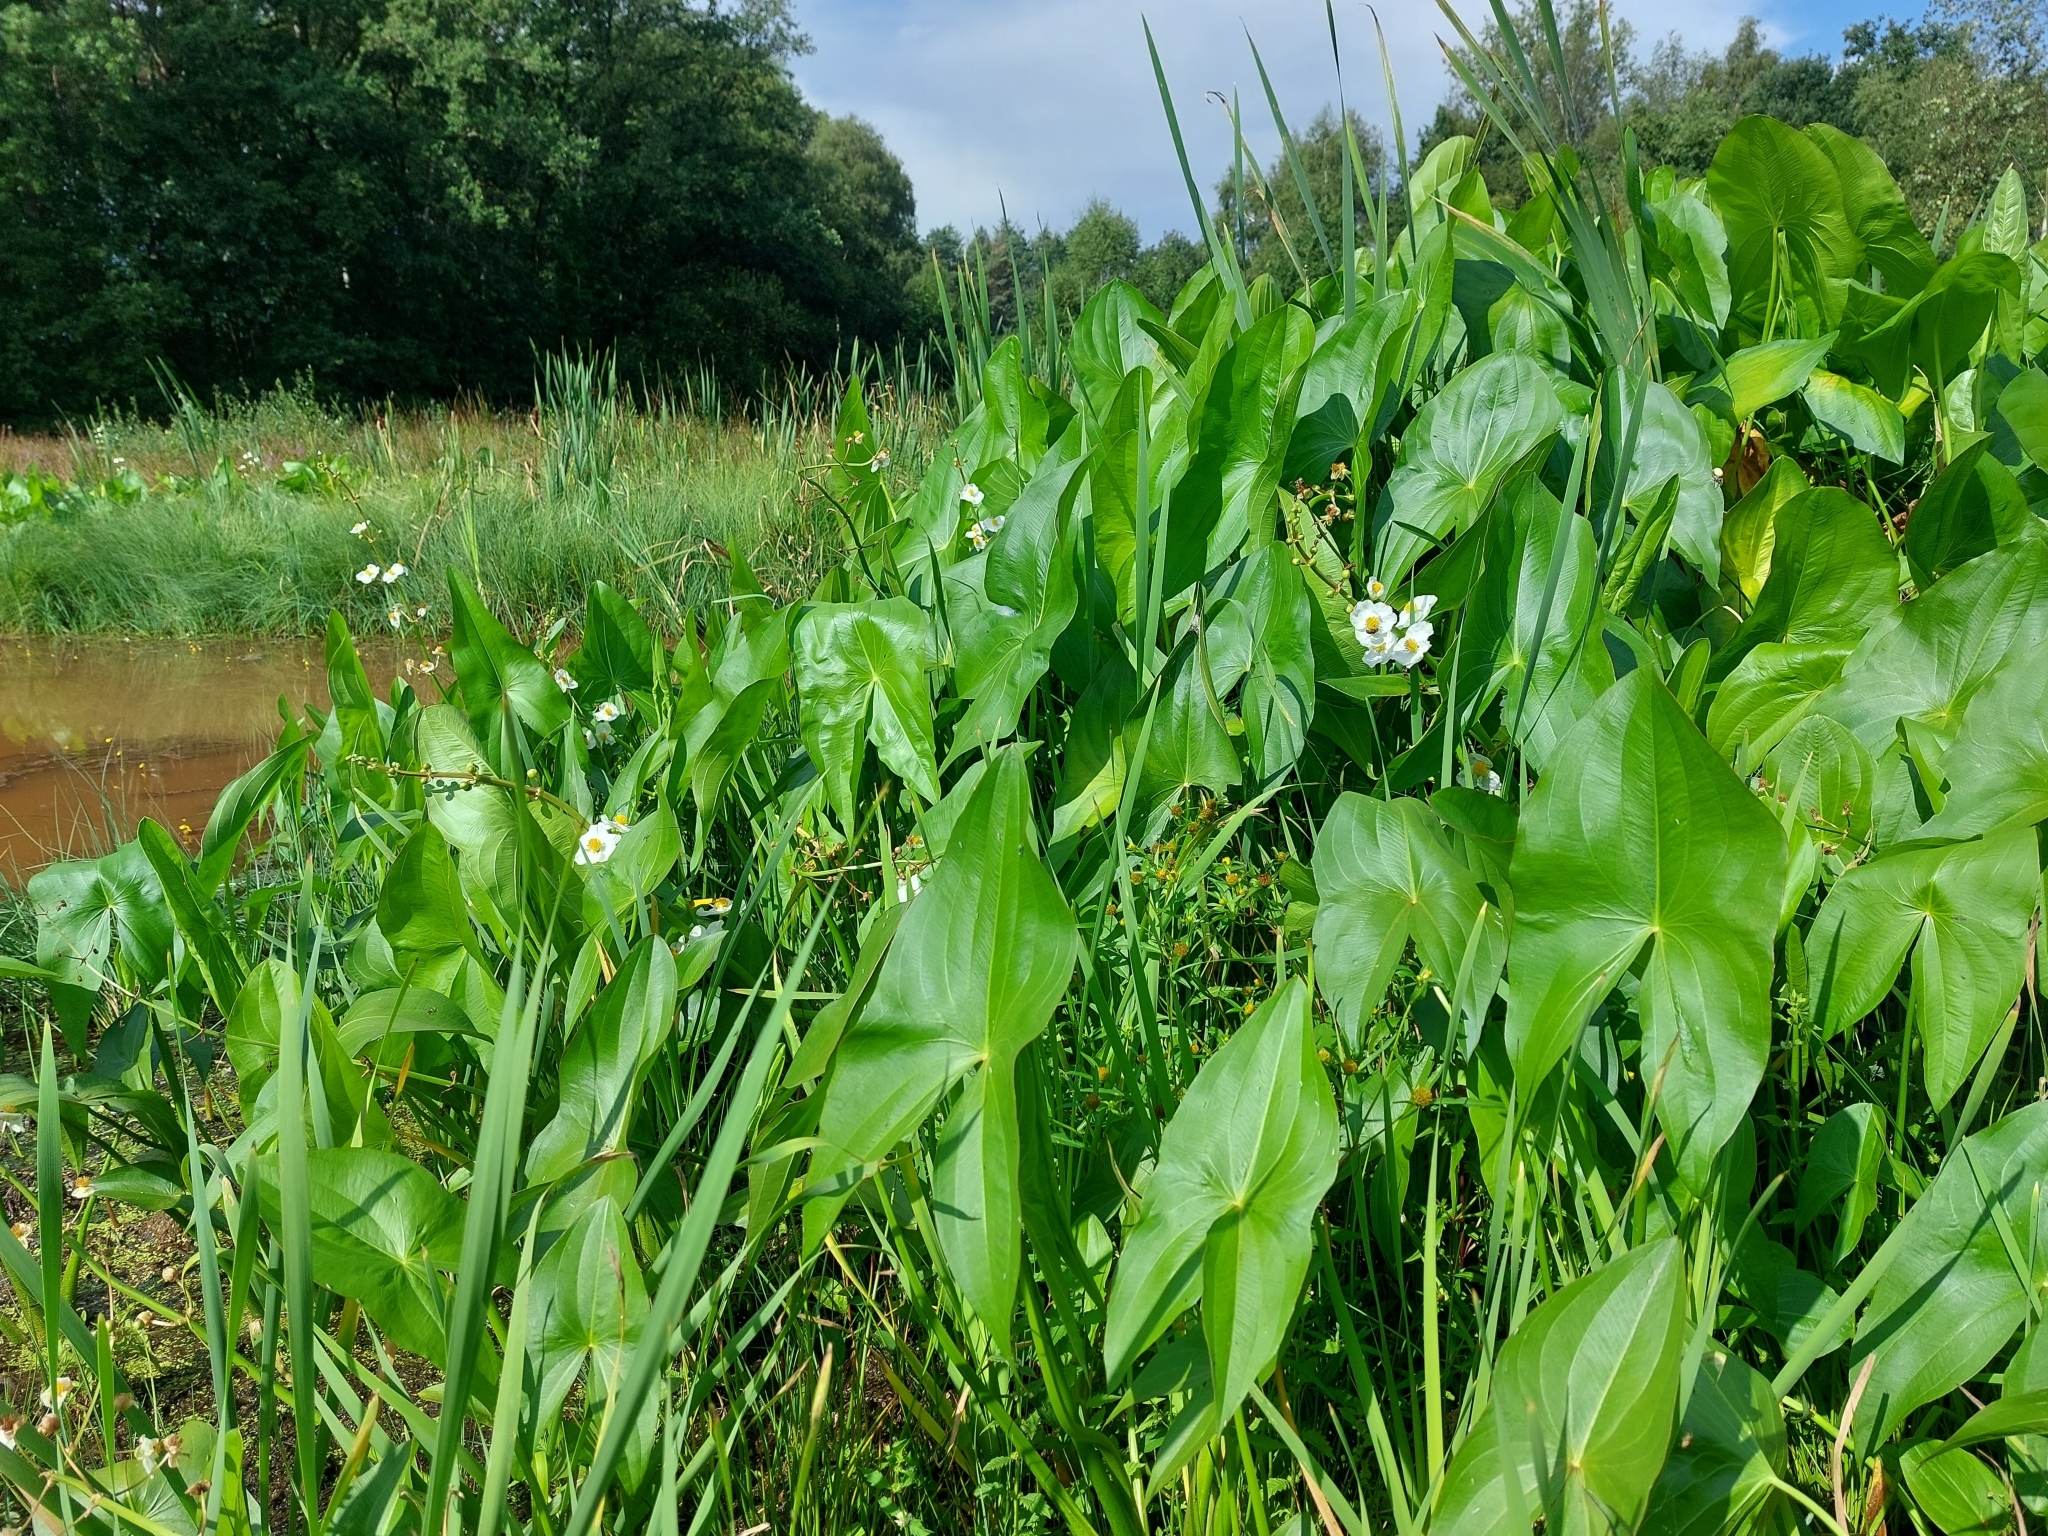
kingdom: Plantae
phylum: Tracheophyta
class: Liliopsida
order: Alismatales
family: Alismataceae
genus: Sagittaria
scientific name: Sagittaria latifolia
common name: Duck-potato
